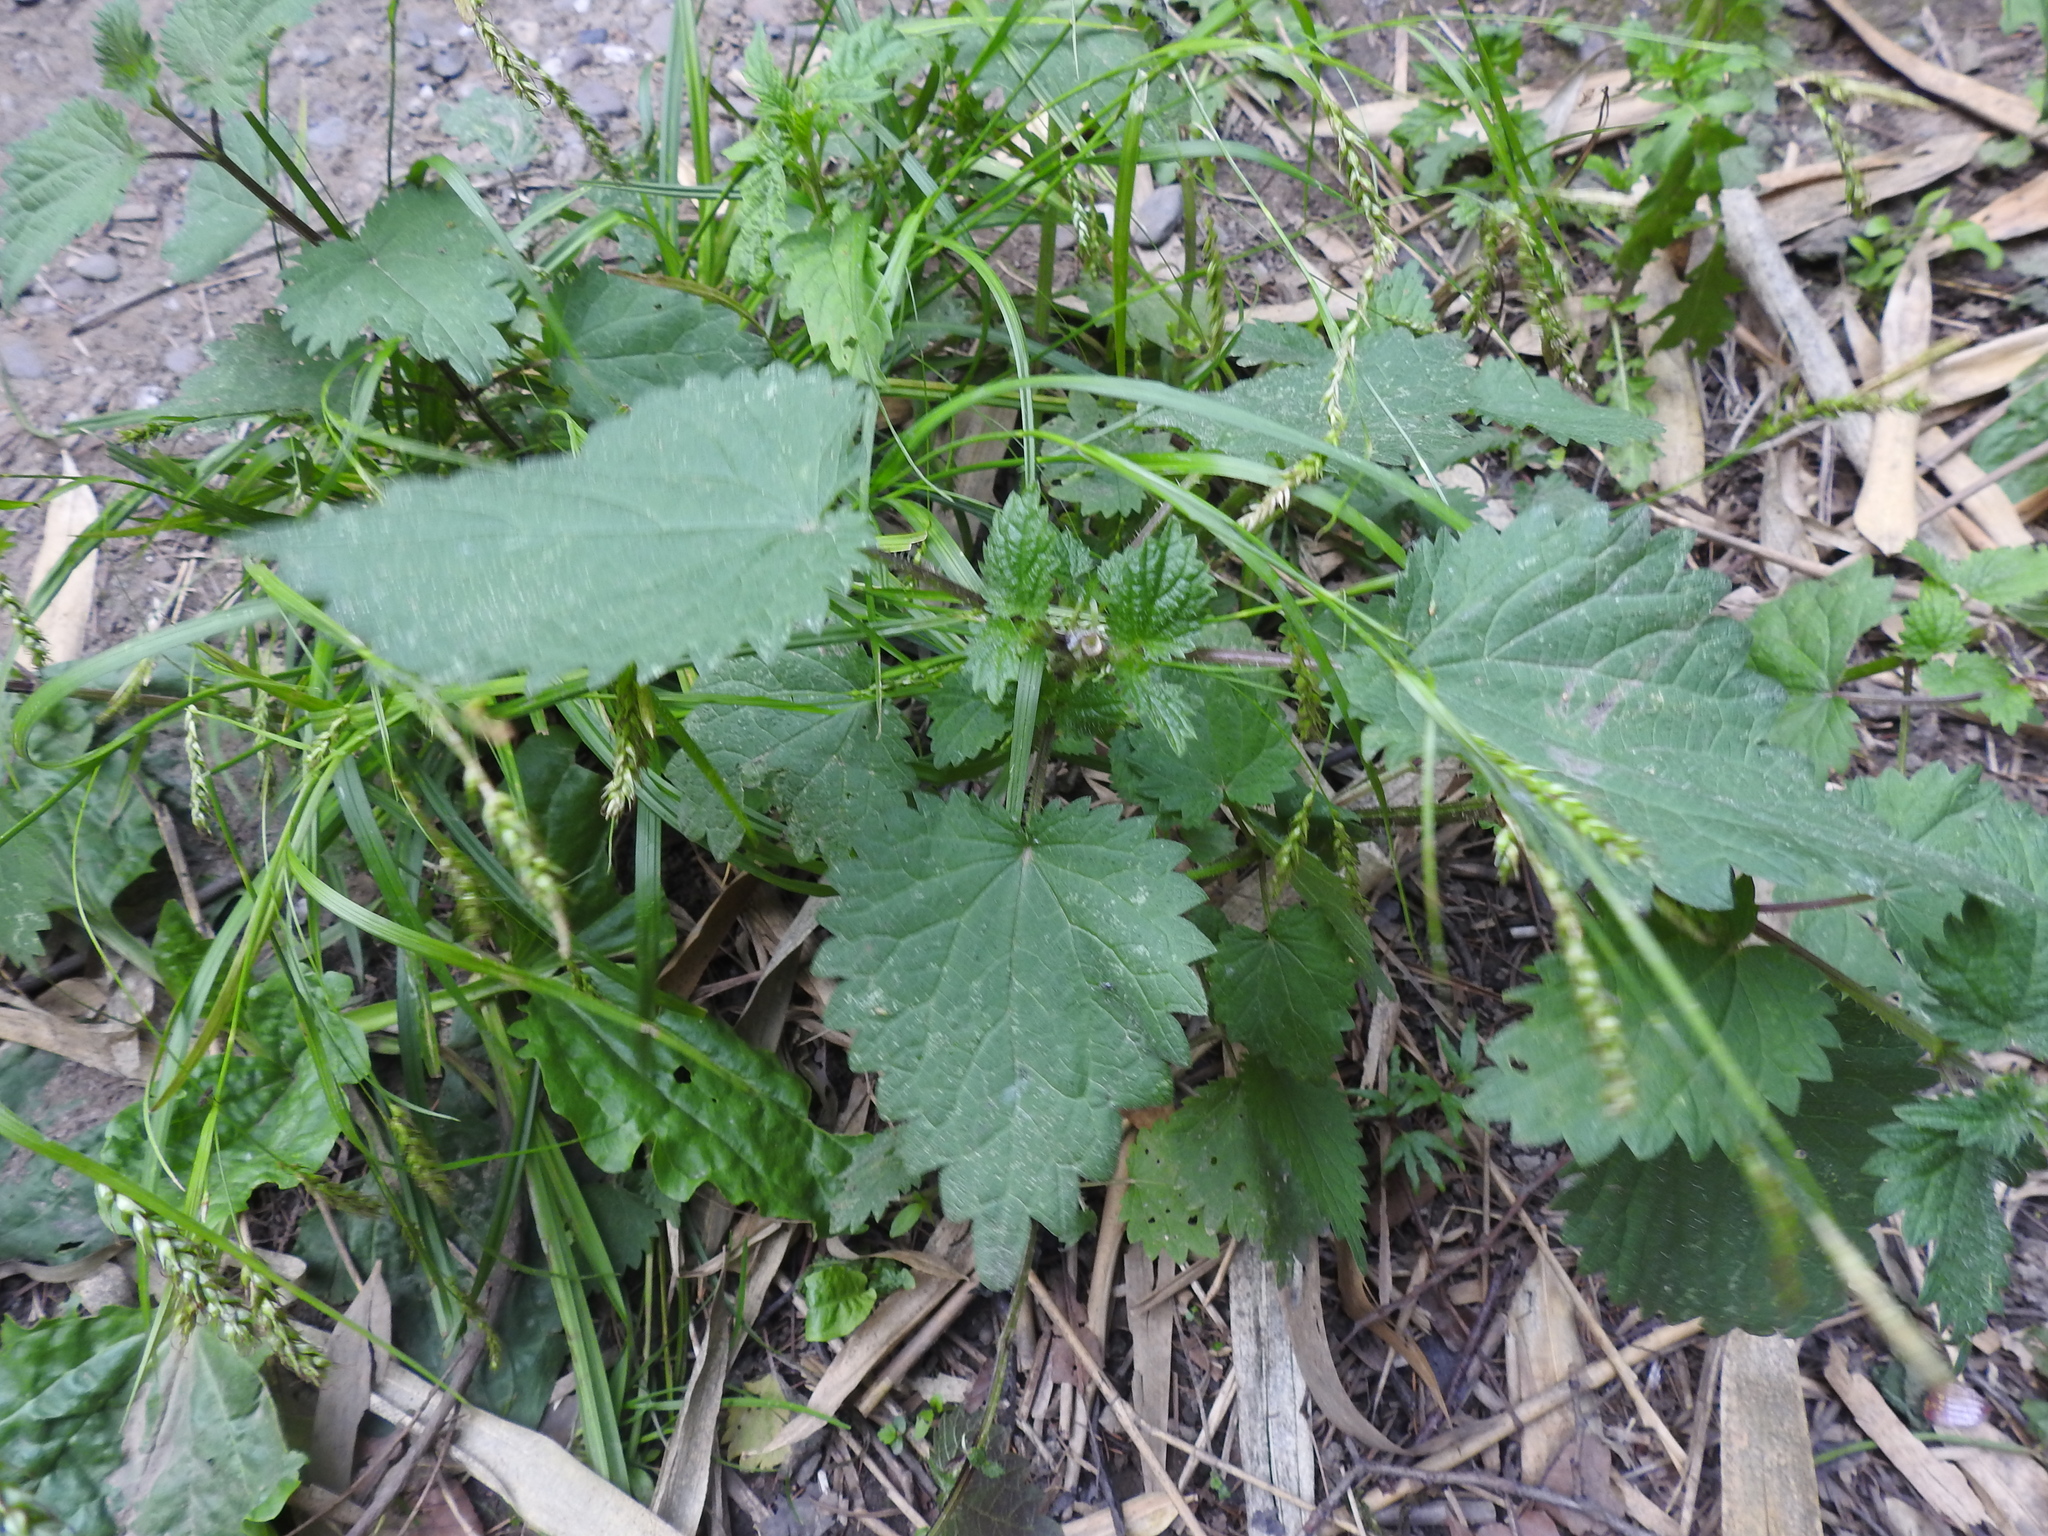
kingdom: Plantae
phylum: Tracheophyta
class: Magnoliopsida
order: Rosales
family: Urticaceae
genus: Urtica
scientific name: Urtica dioica
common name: Common nettle
